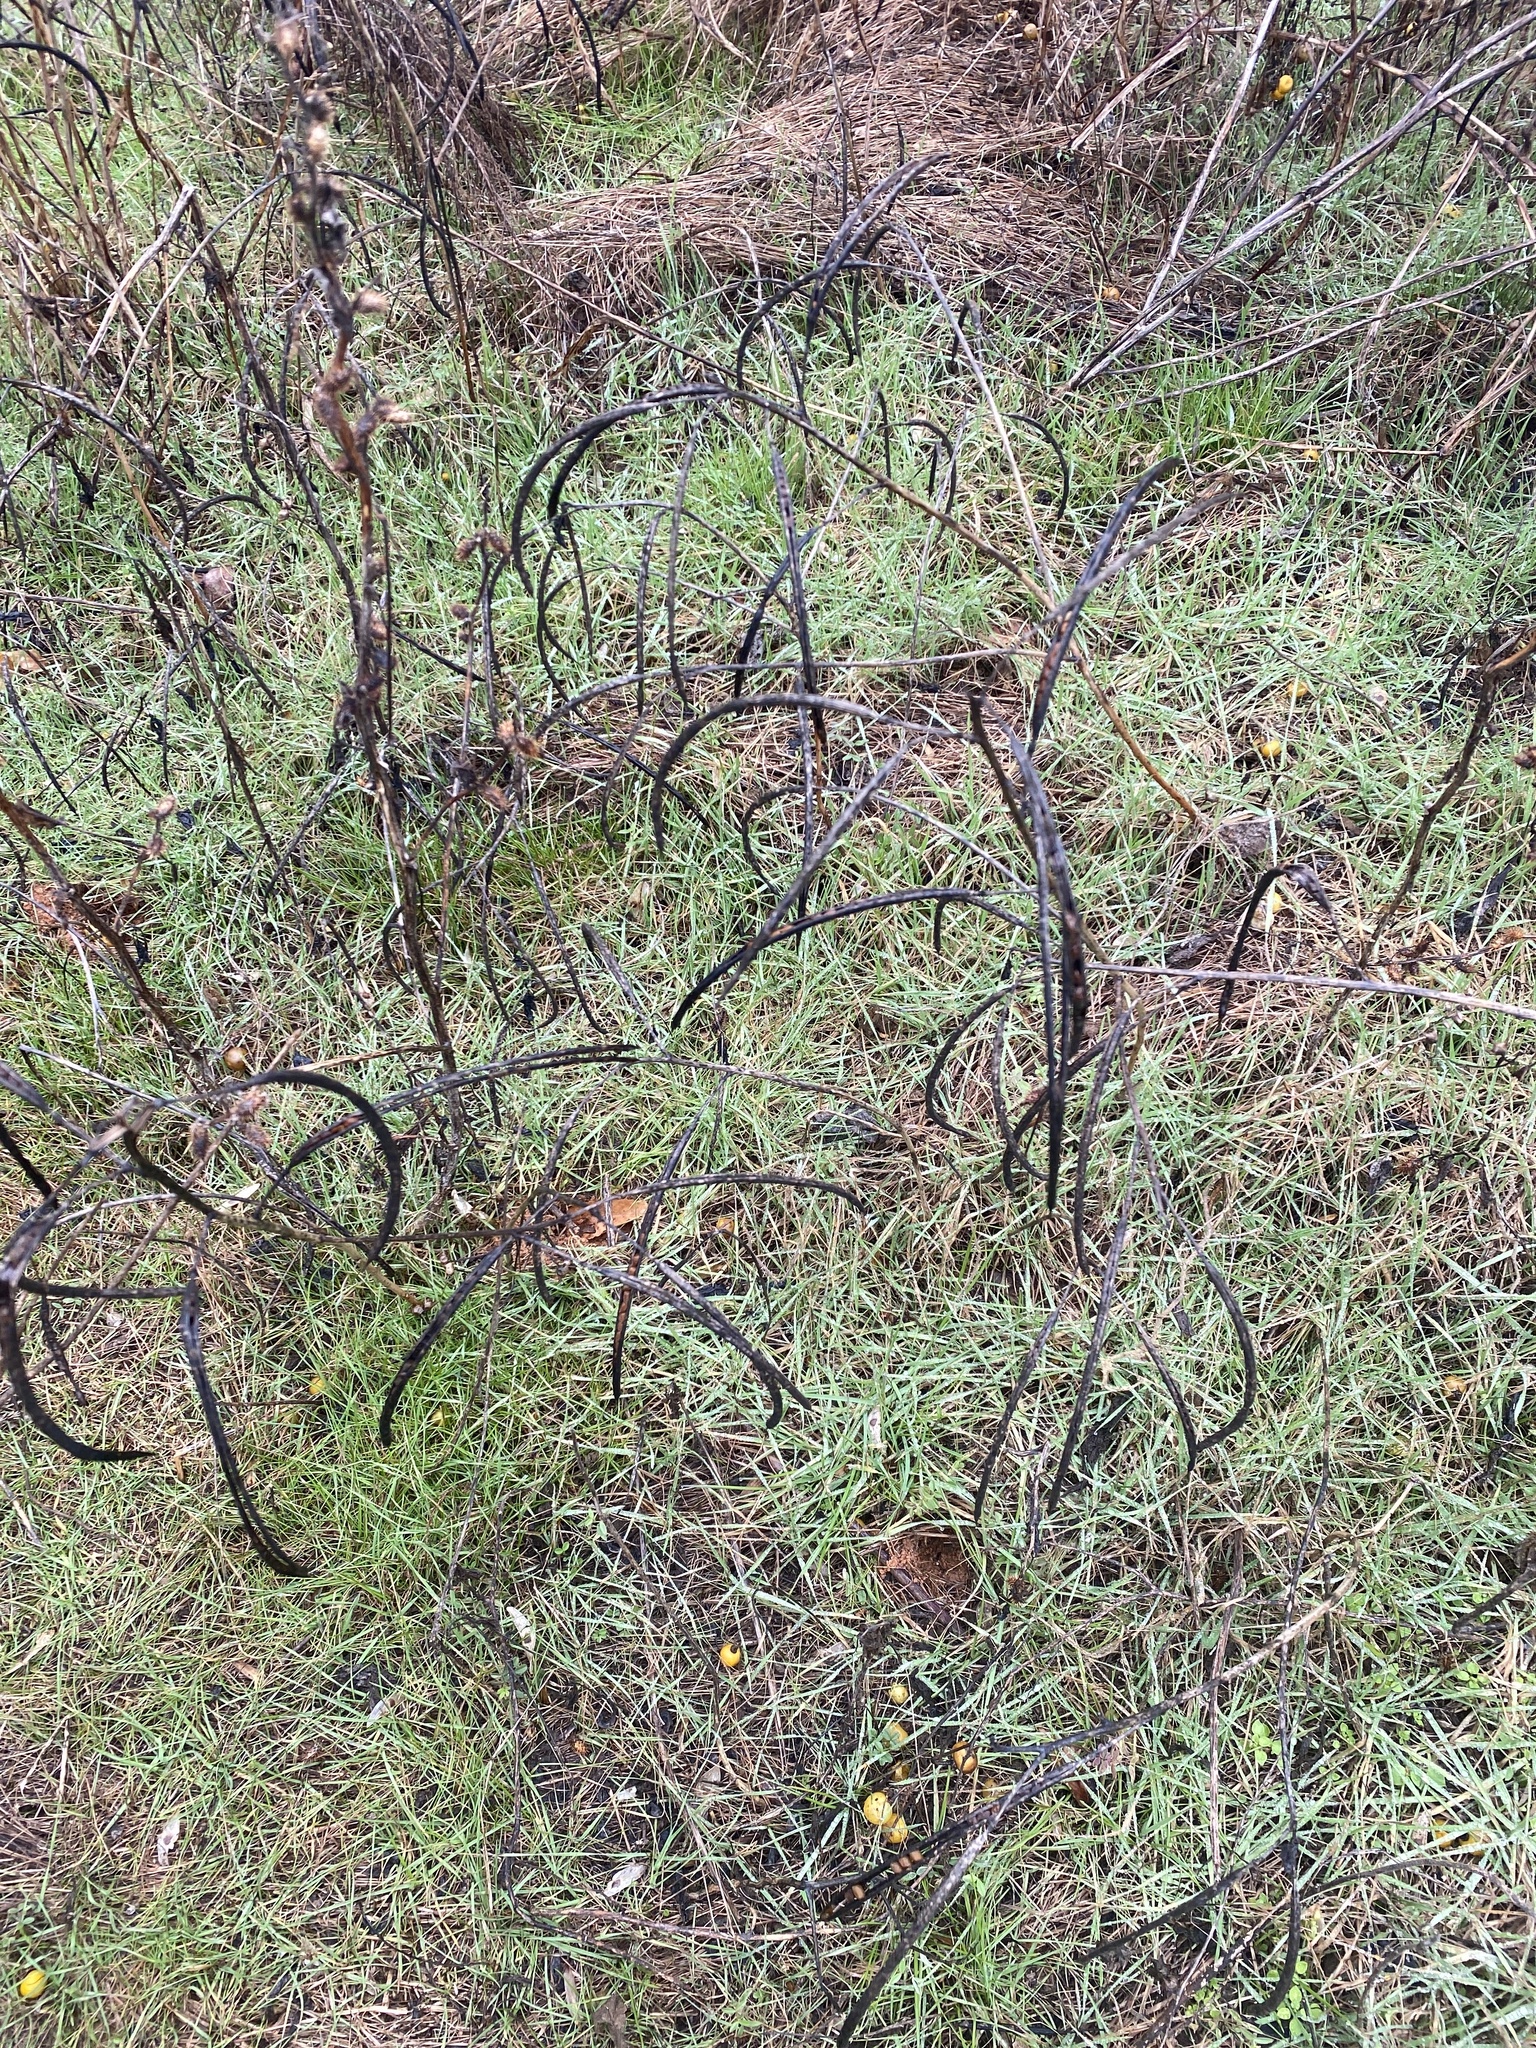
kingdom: Plantae
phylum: Tracheophyta
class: Magnoliopsida
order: Fabales
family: Fabaceae
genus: Senna
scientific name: Senna obtusifolia
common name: Java-bean
